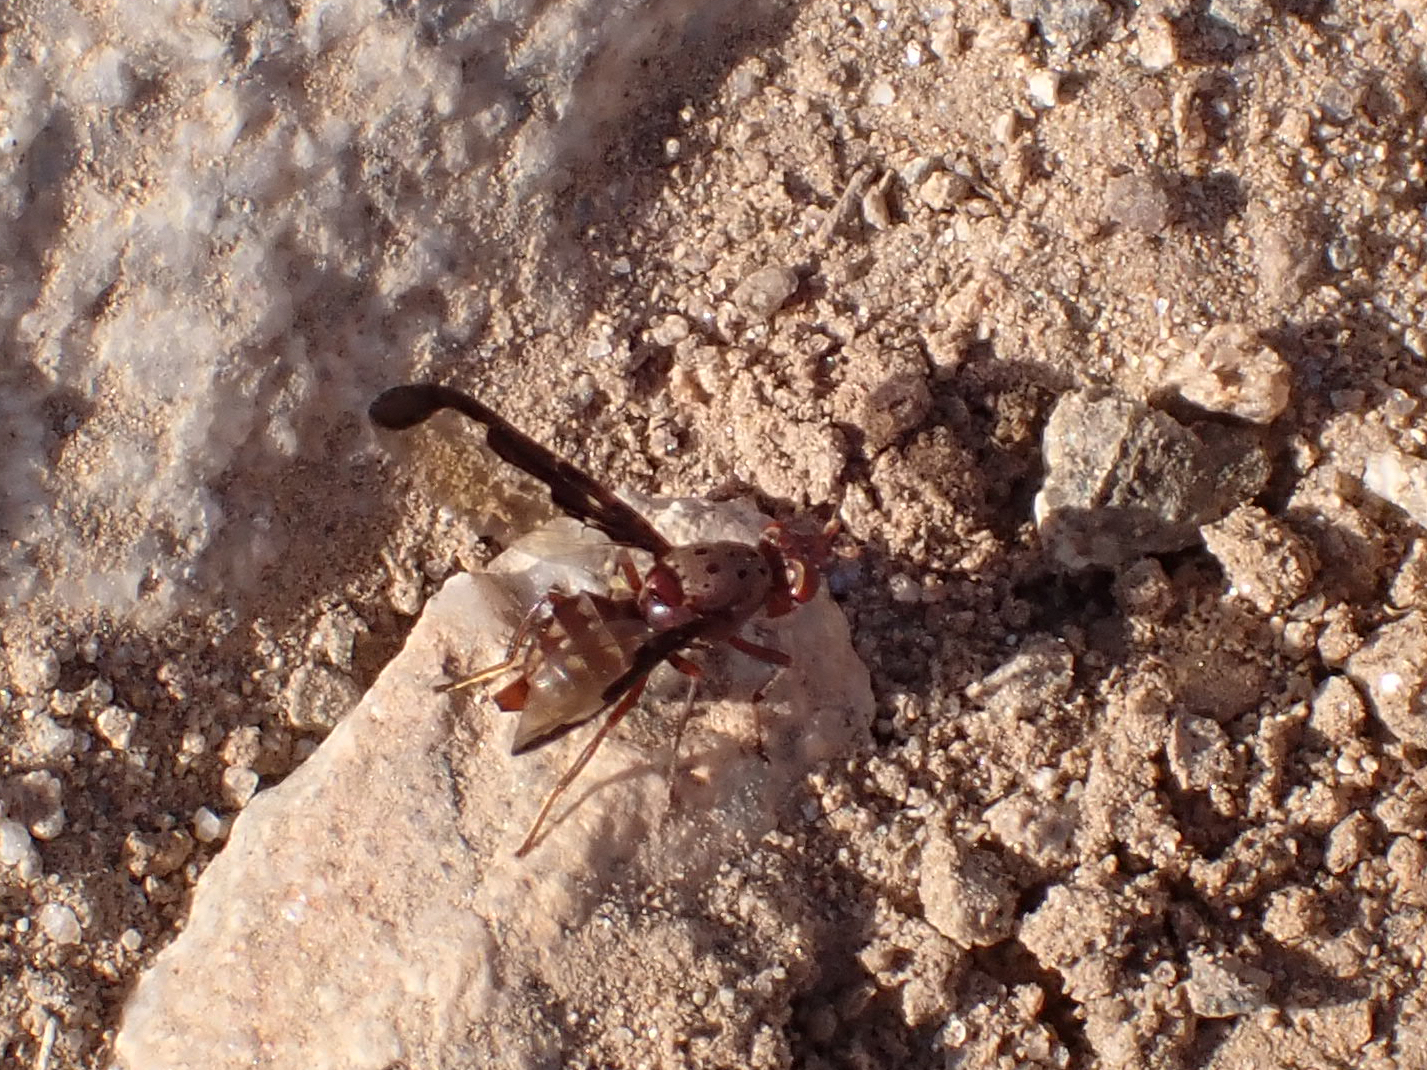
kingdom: Animalia
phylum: Arthropoda
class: Insecta
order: Diptera
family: Ulidiidae
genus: Diacrita
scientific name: Diacrita costalis
